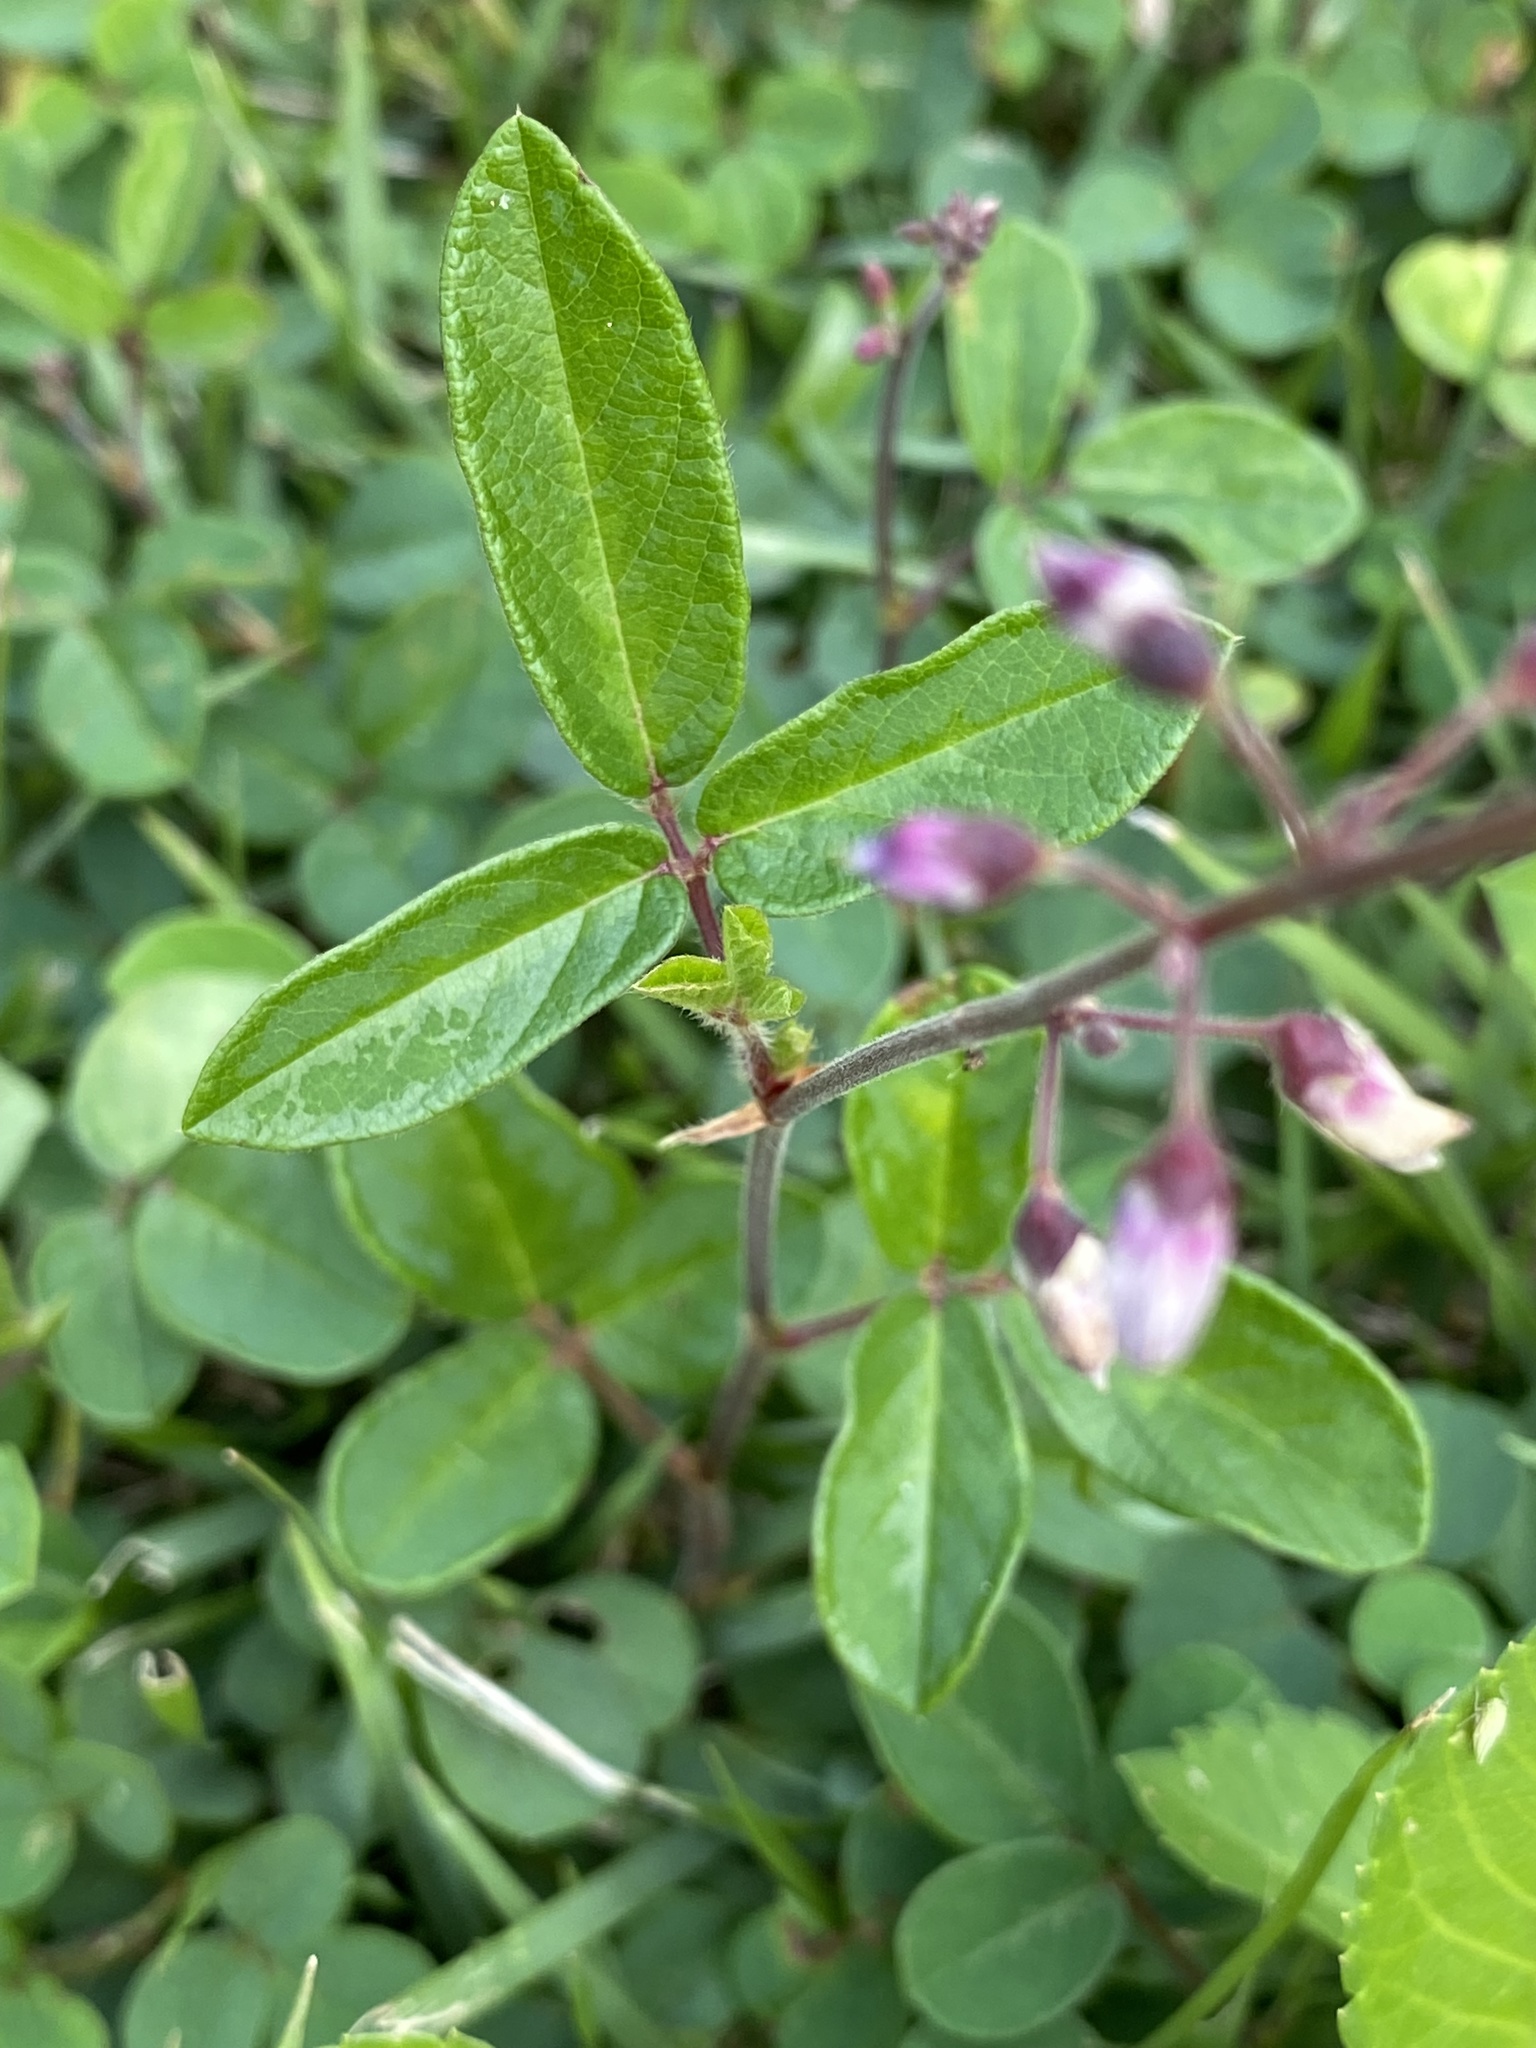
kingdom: Plantae
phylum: Tracheophyta
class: Magnoliopsida
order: Fabales
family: Fabaceae
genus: Desmodium
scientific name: Desmodium incanum
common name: Tickclover
